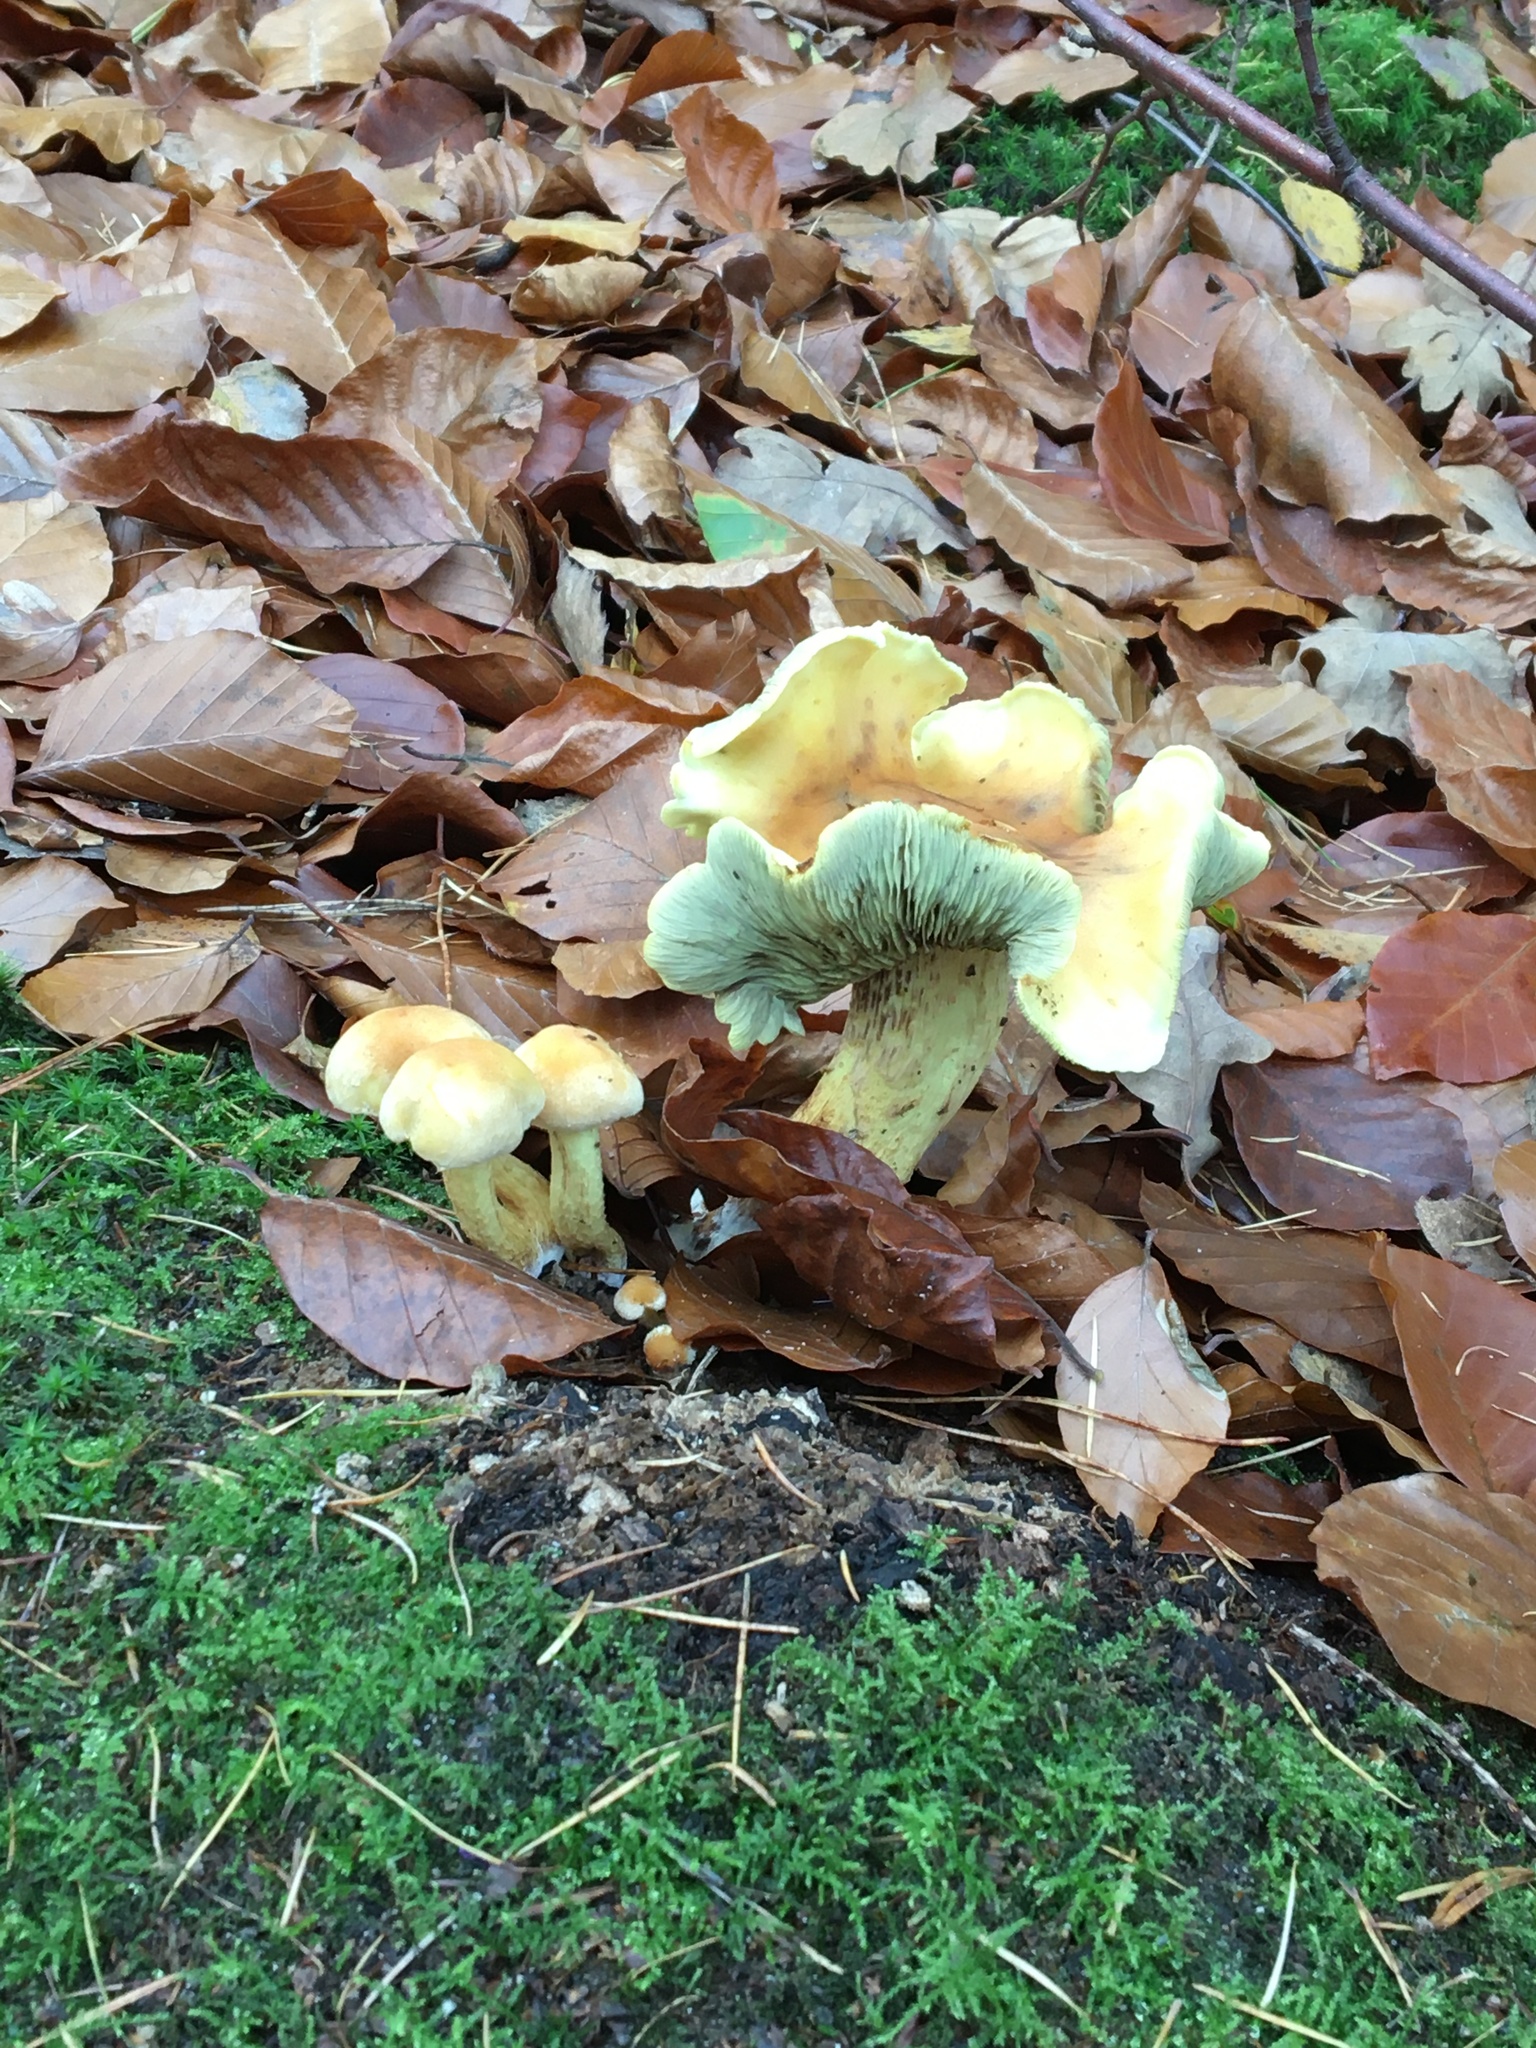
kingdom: Fungi
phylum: Basidiomycota
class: Agaricomycetes
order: Agaricales
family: Strophariaceae
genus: Hypholoma
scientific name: Hypholoma fasciculare
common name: Sulphur tuft
